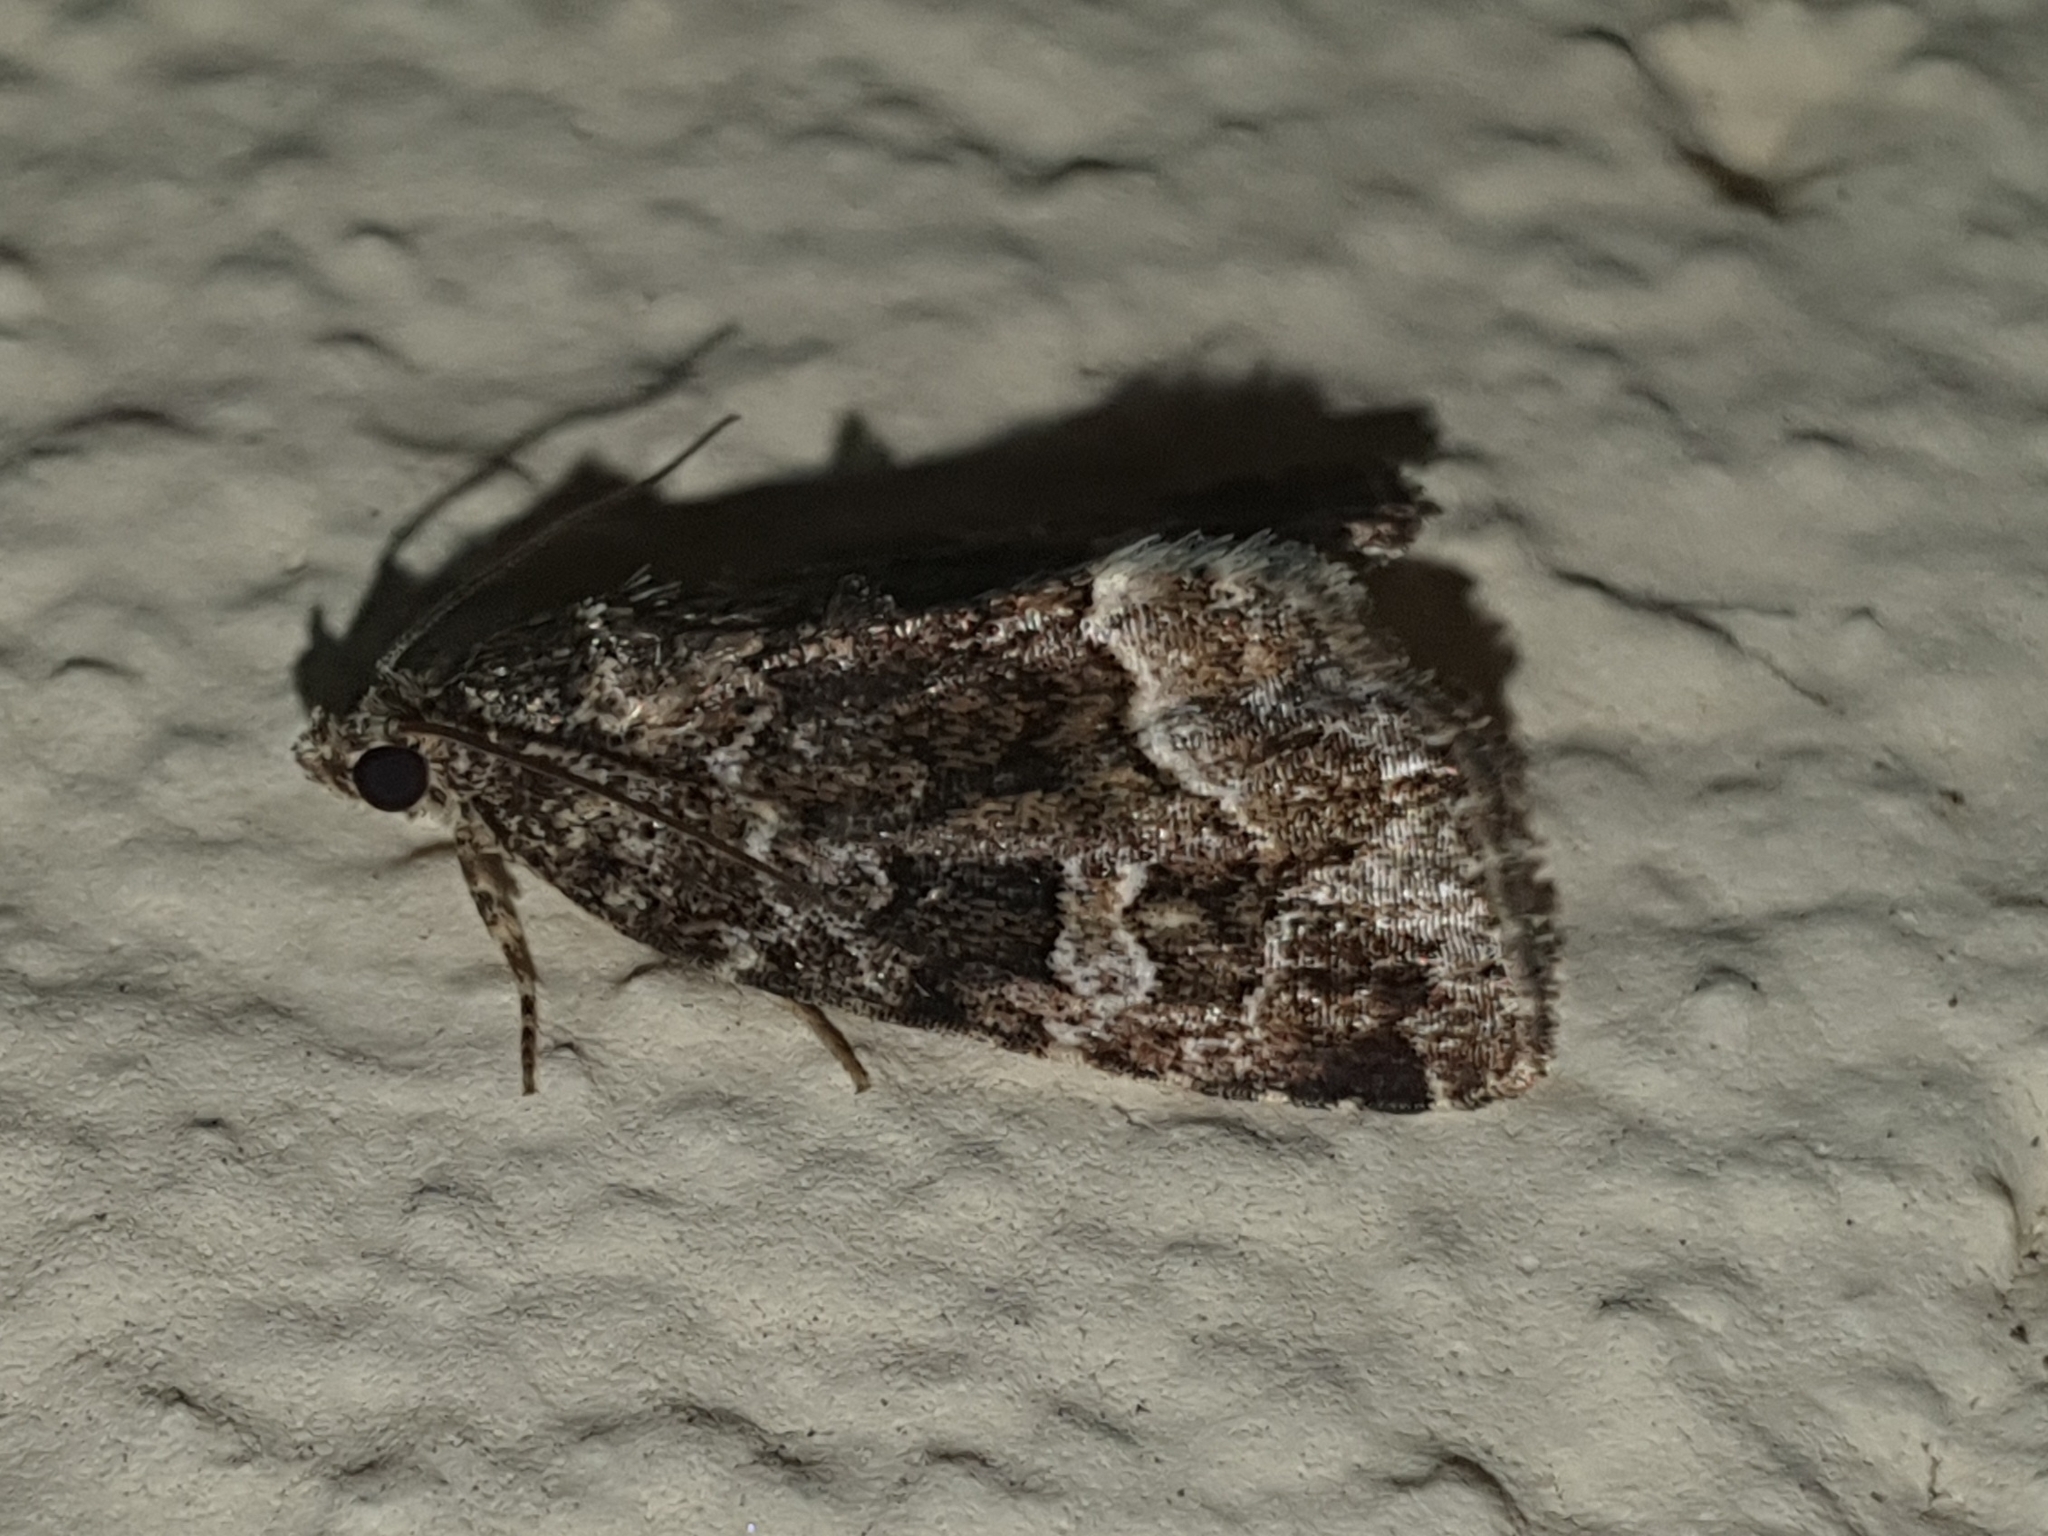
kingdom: Animalia
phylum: Arthropoda
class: Insecta
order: Lepidoptera
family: Noctuidae
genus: Deltote
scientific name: Deltote pygarga
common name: Marbled white spot
